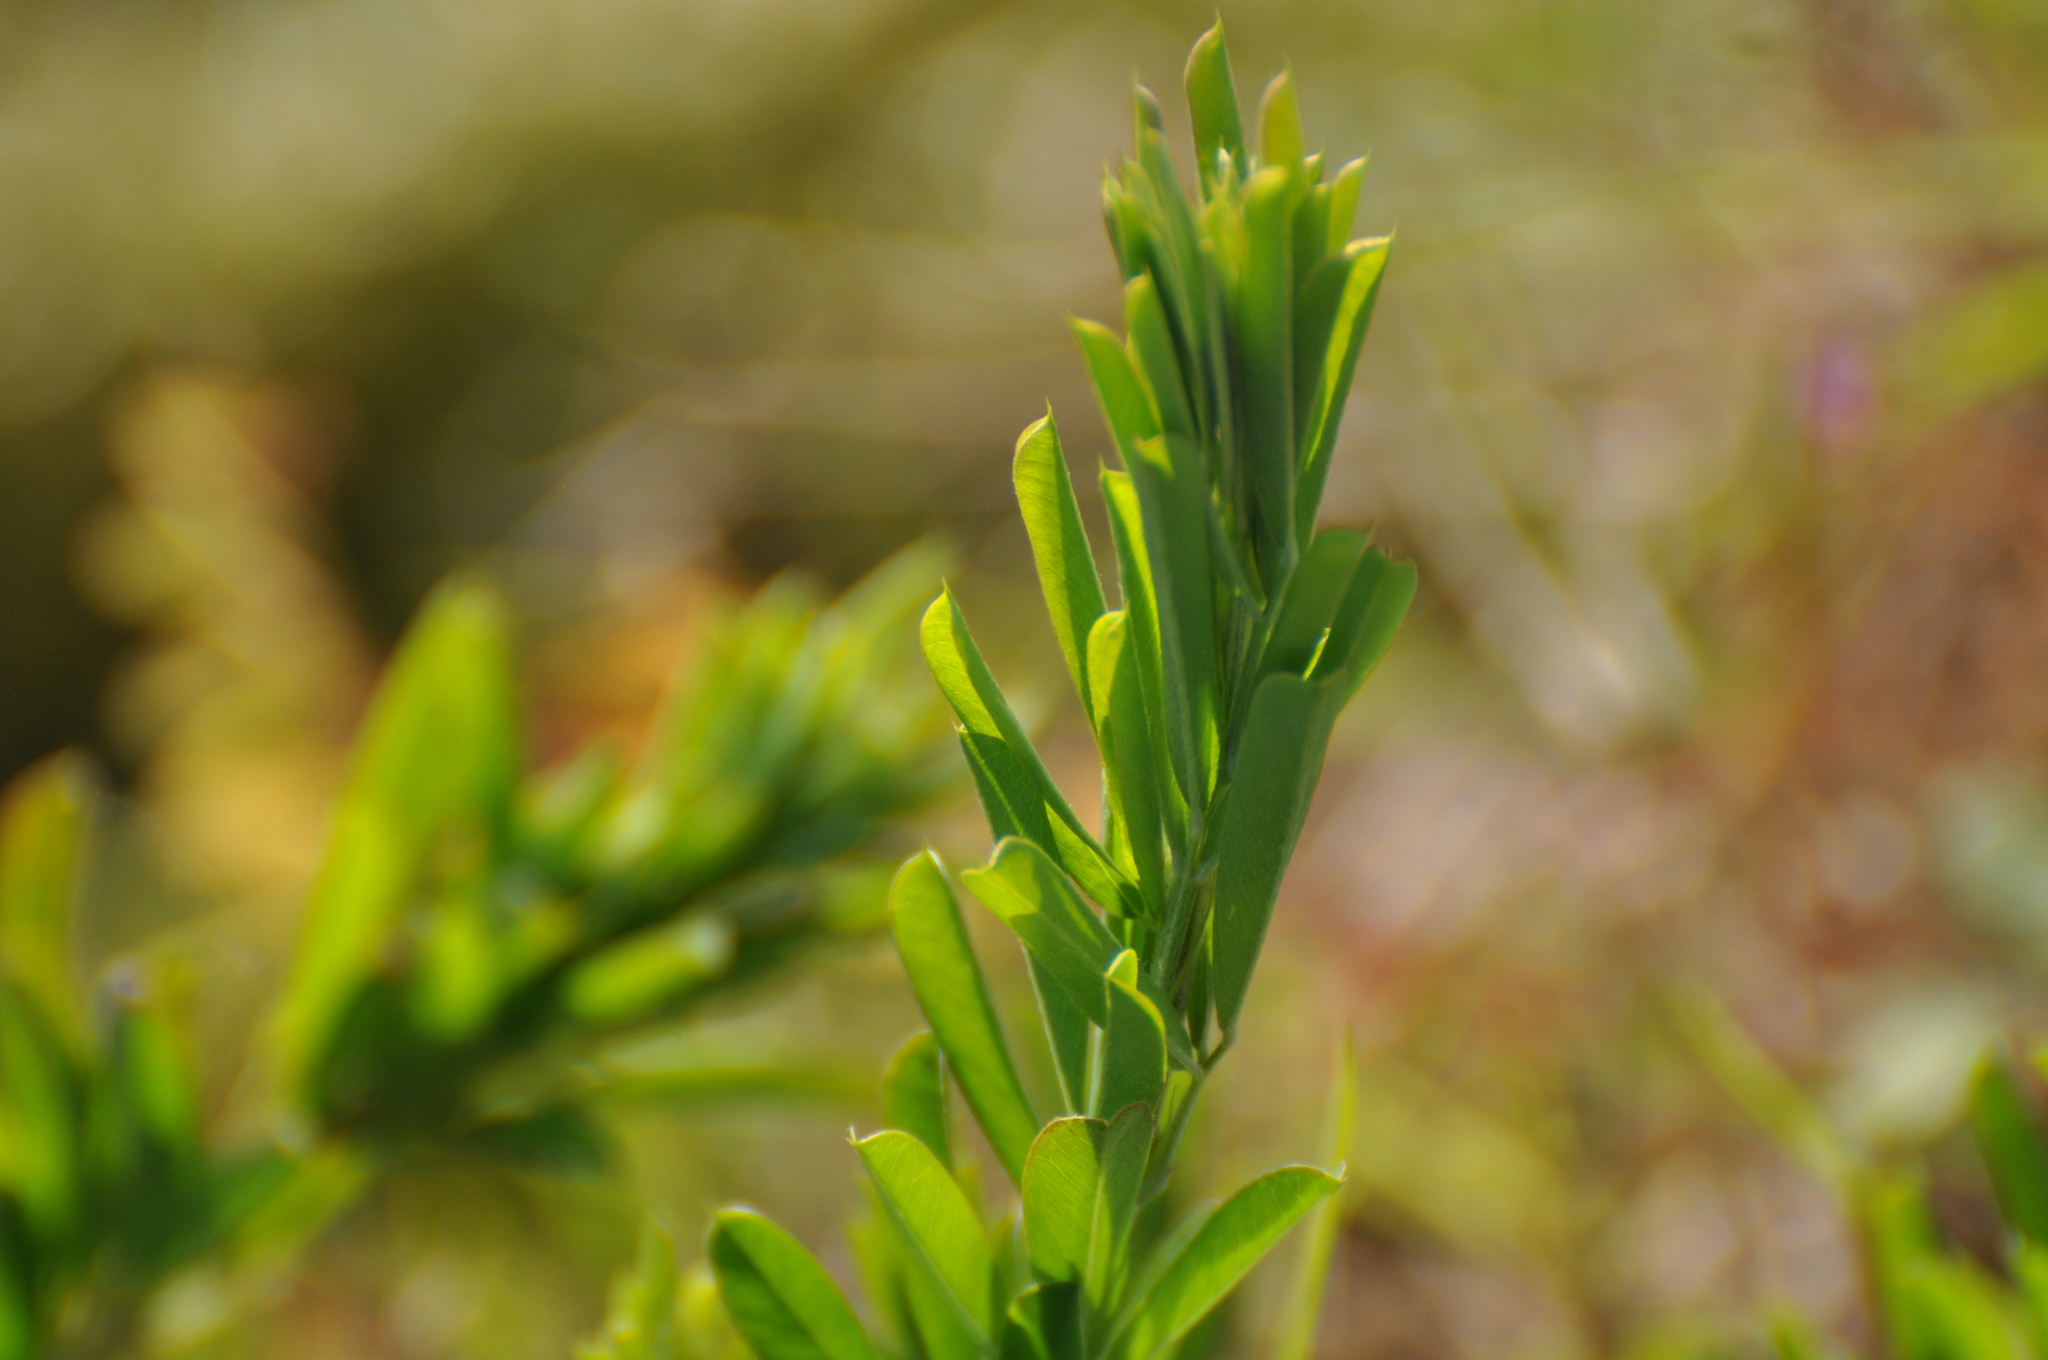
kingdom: Plantae
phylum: Tracheophyta
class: Magnoliopsida
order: Fabales
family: Fabaceae
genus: Lespedeza
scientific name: Lespedeza cuneata
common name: Chinese bush-clover
